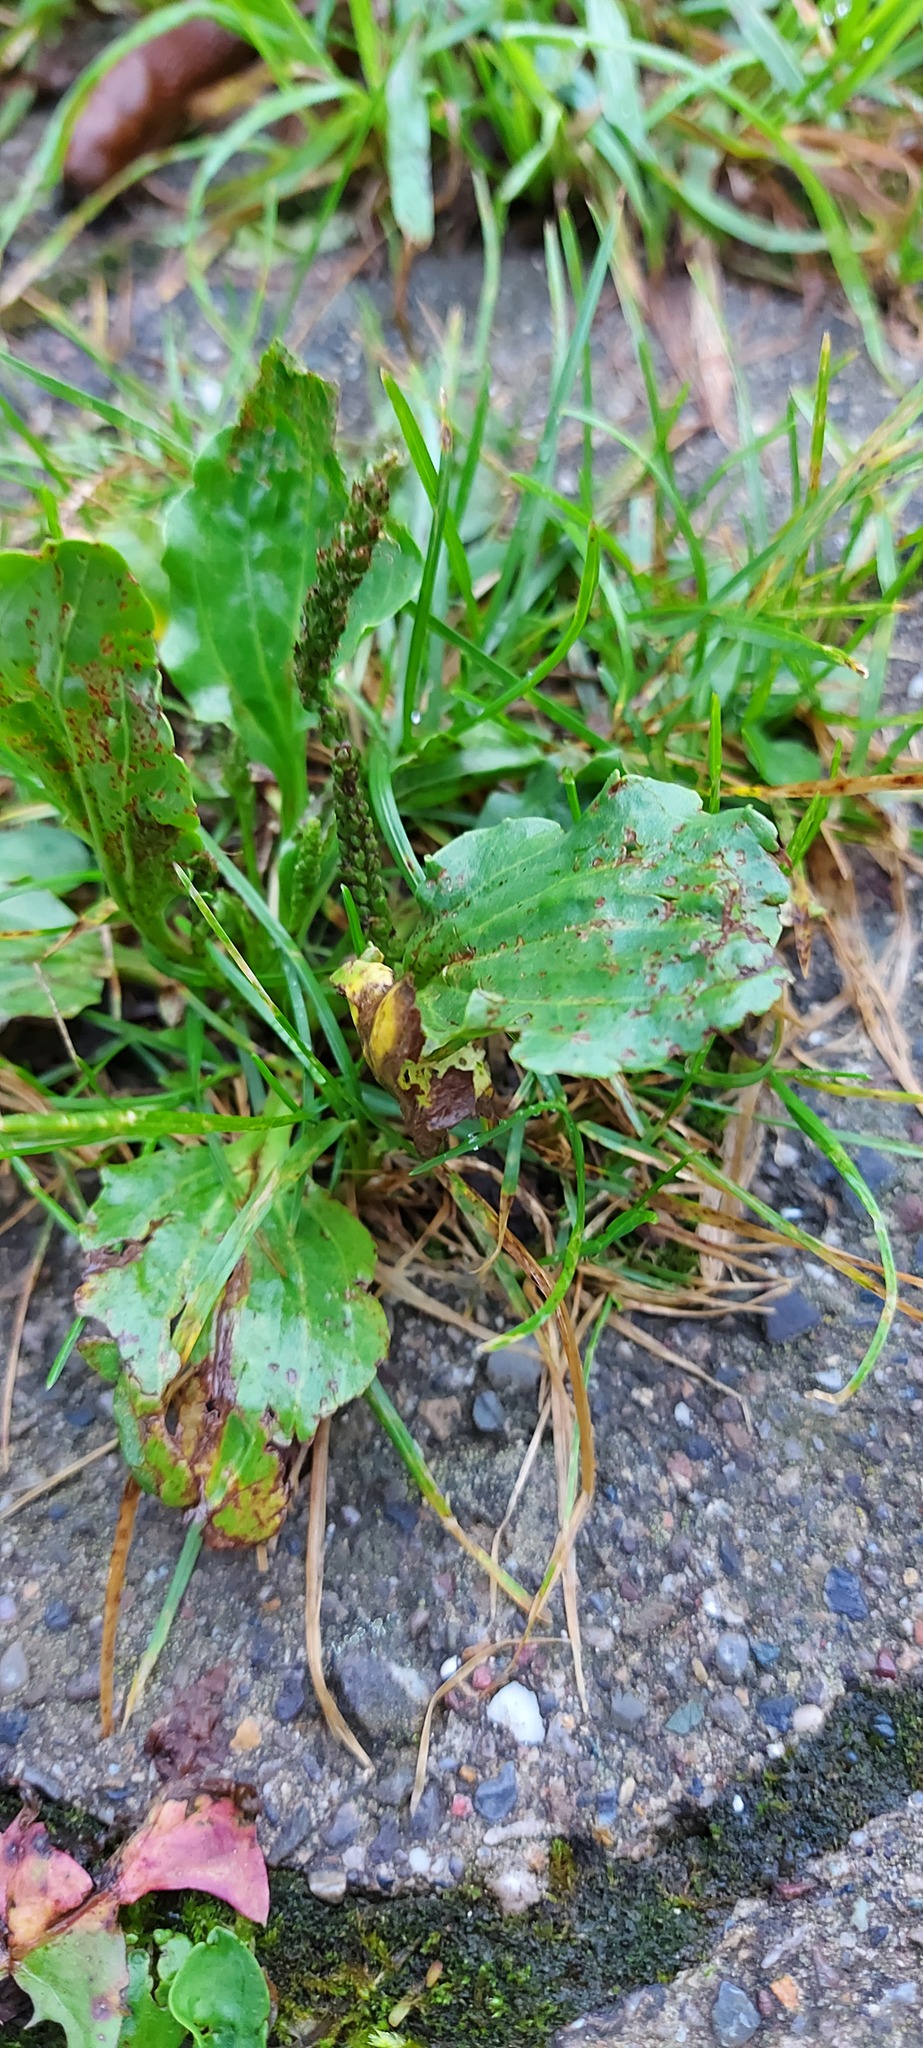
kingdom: Plantae
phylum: Tracheophyta
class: Magnoliopsida
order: Lamiales
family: Plantaginaceae
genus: Plantago
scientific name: Plantago major
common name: Common plantain
